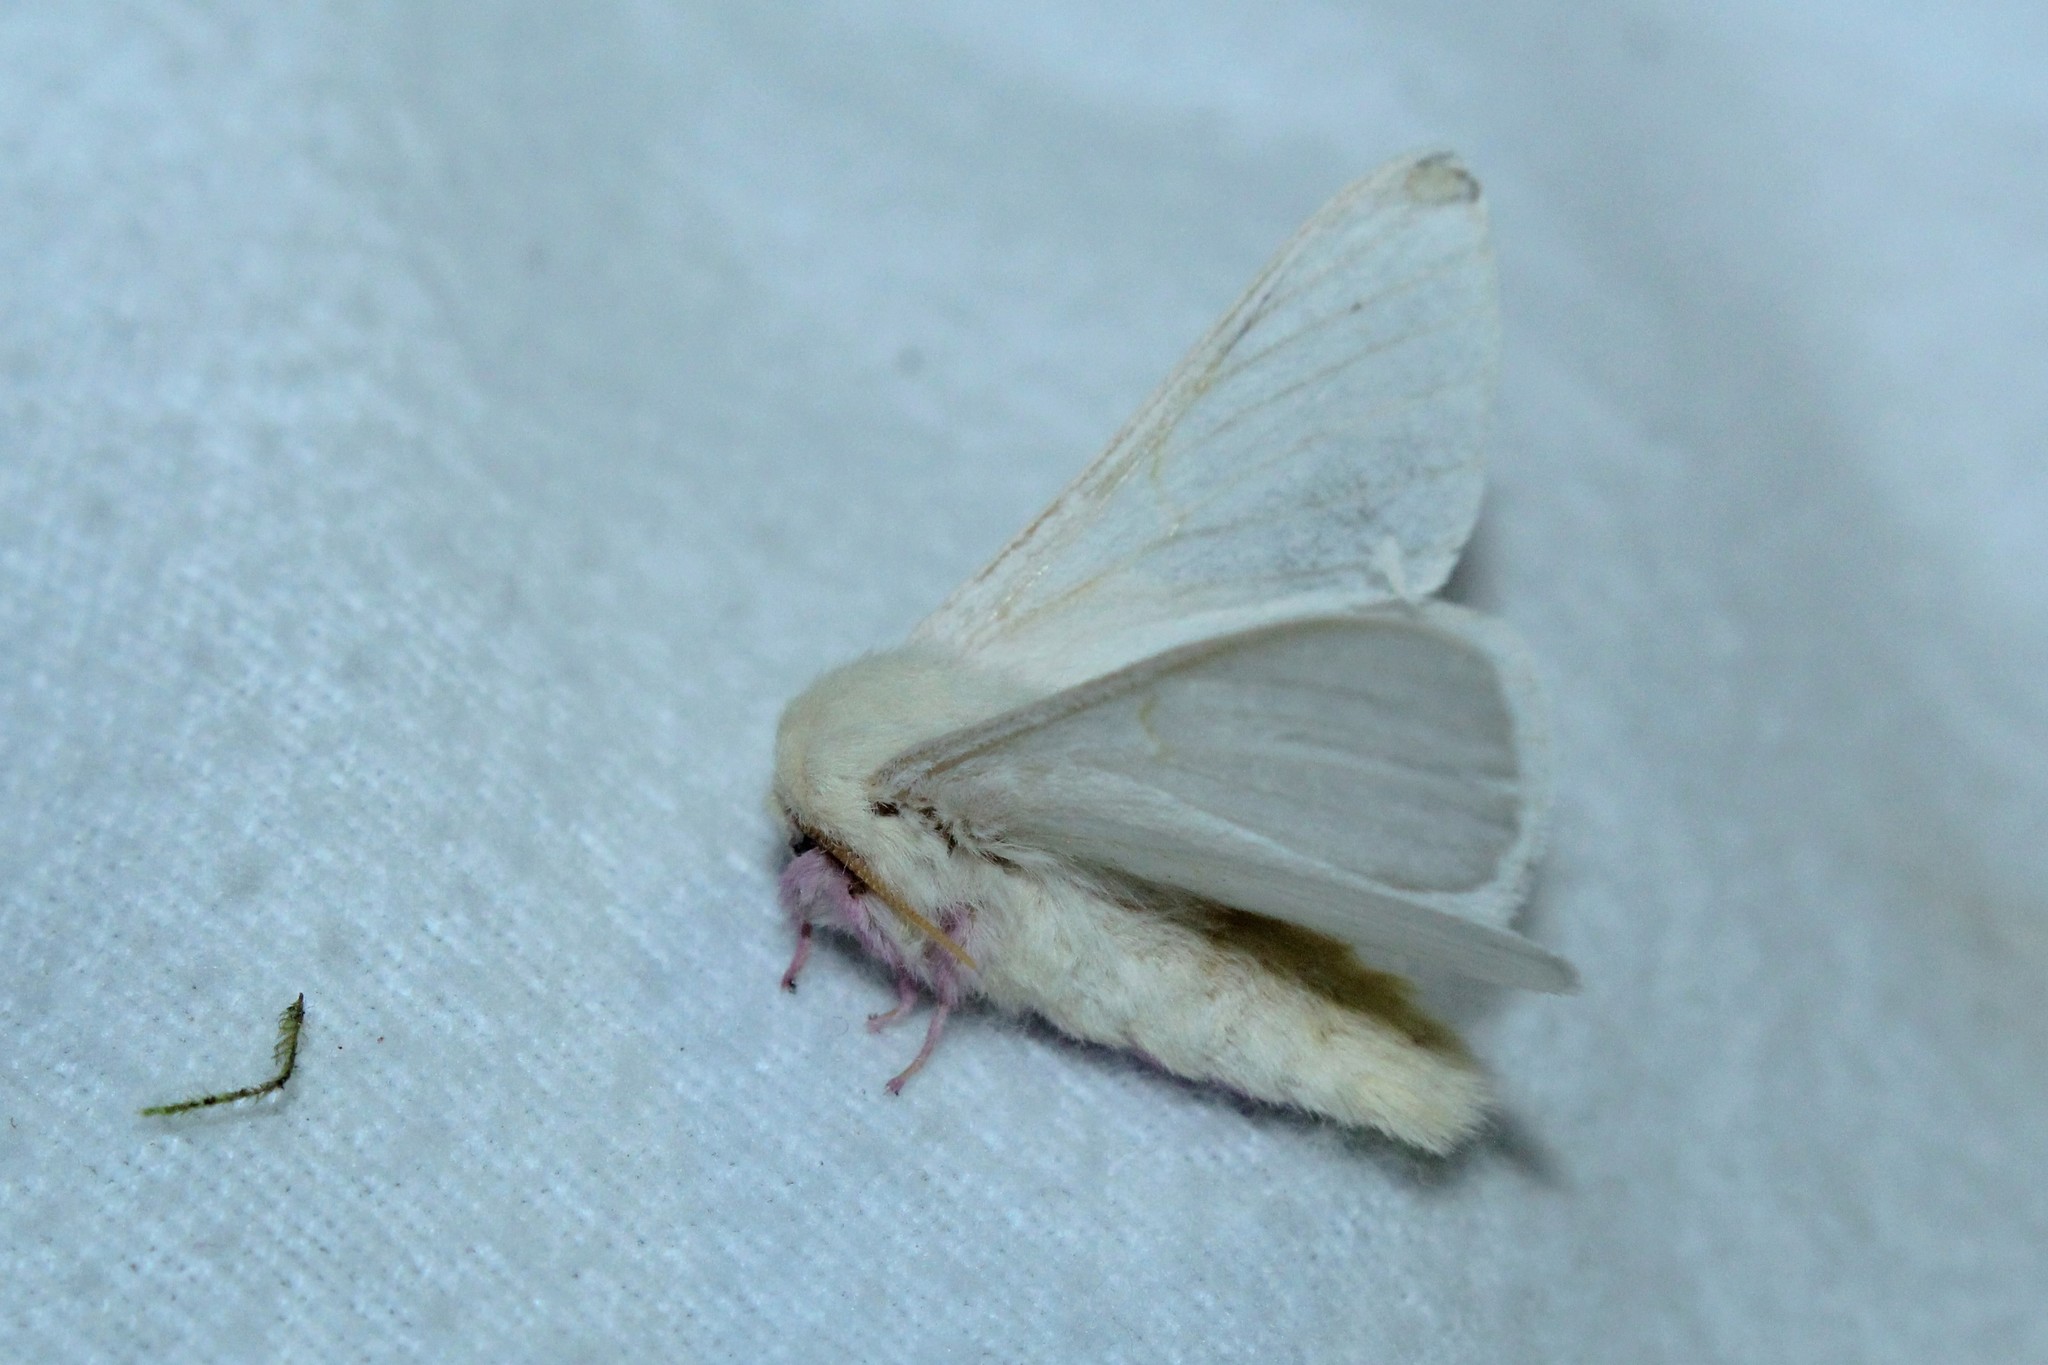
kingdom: Animalia
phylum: Arthropoda
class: Insecta
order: Lepidoptera
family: Saturniidae
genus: Dryocampa
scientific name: Dryocampa rubicunda
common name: Rosy maple moth
